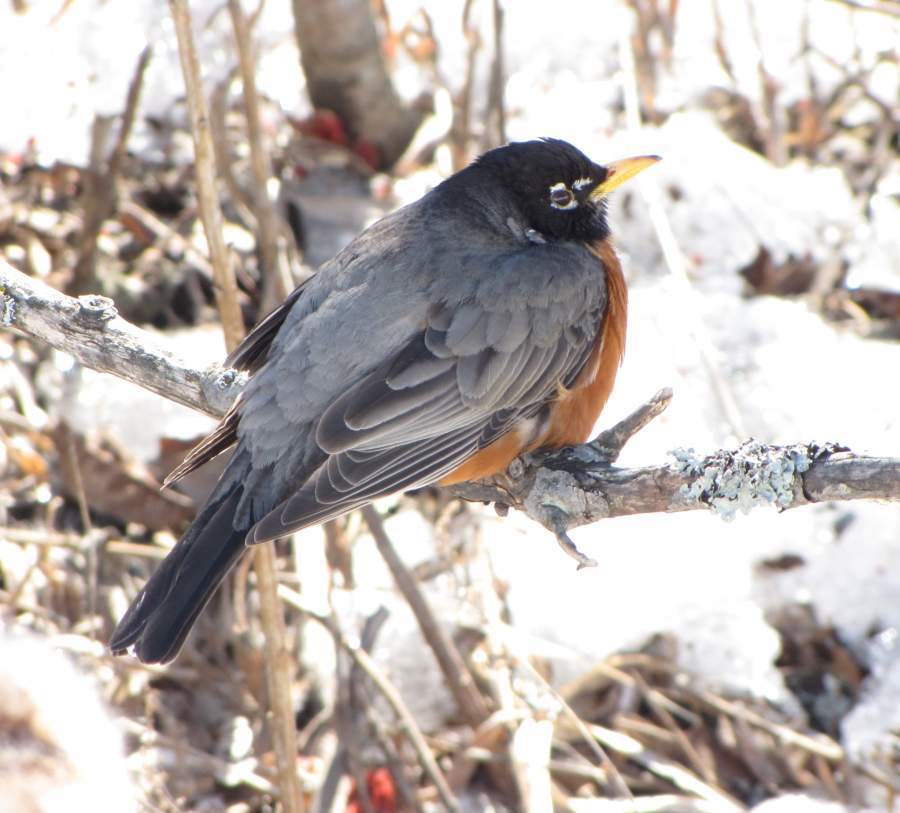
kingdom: Animalia
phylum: Chordata
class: Aves
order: Passeriformes
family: Turdidae
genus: Turdus
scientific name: Turdus migratorius
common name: American robin
